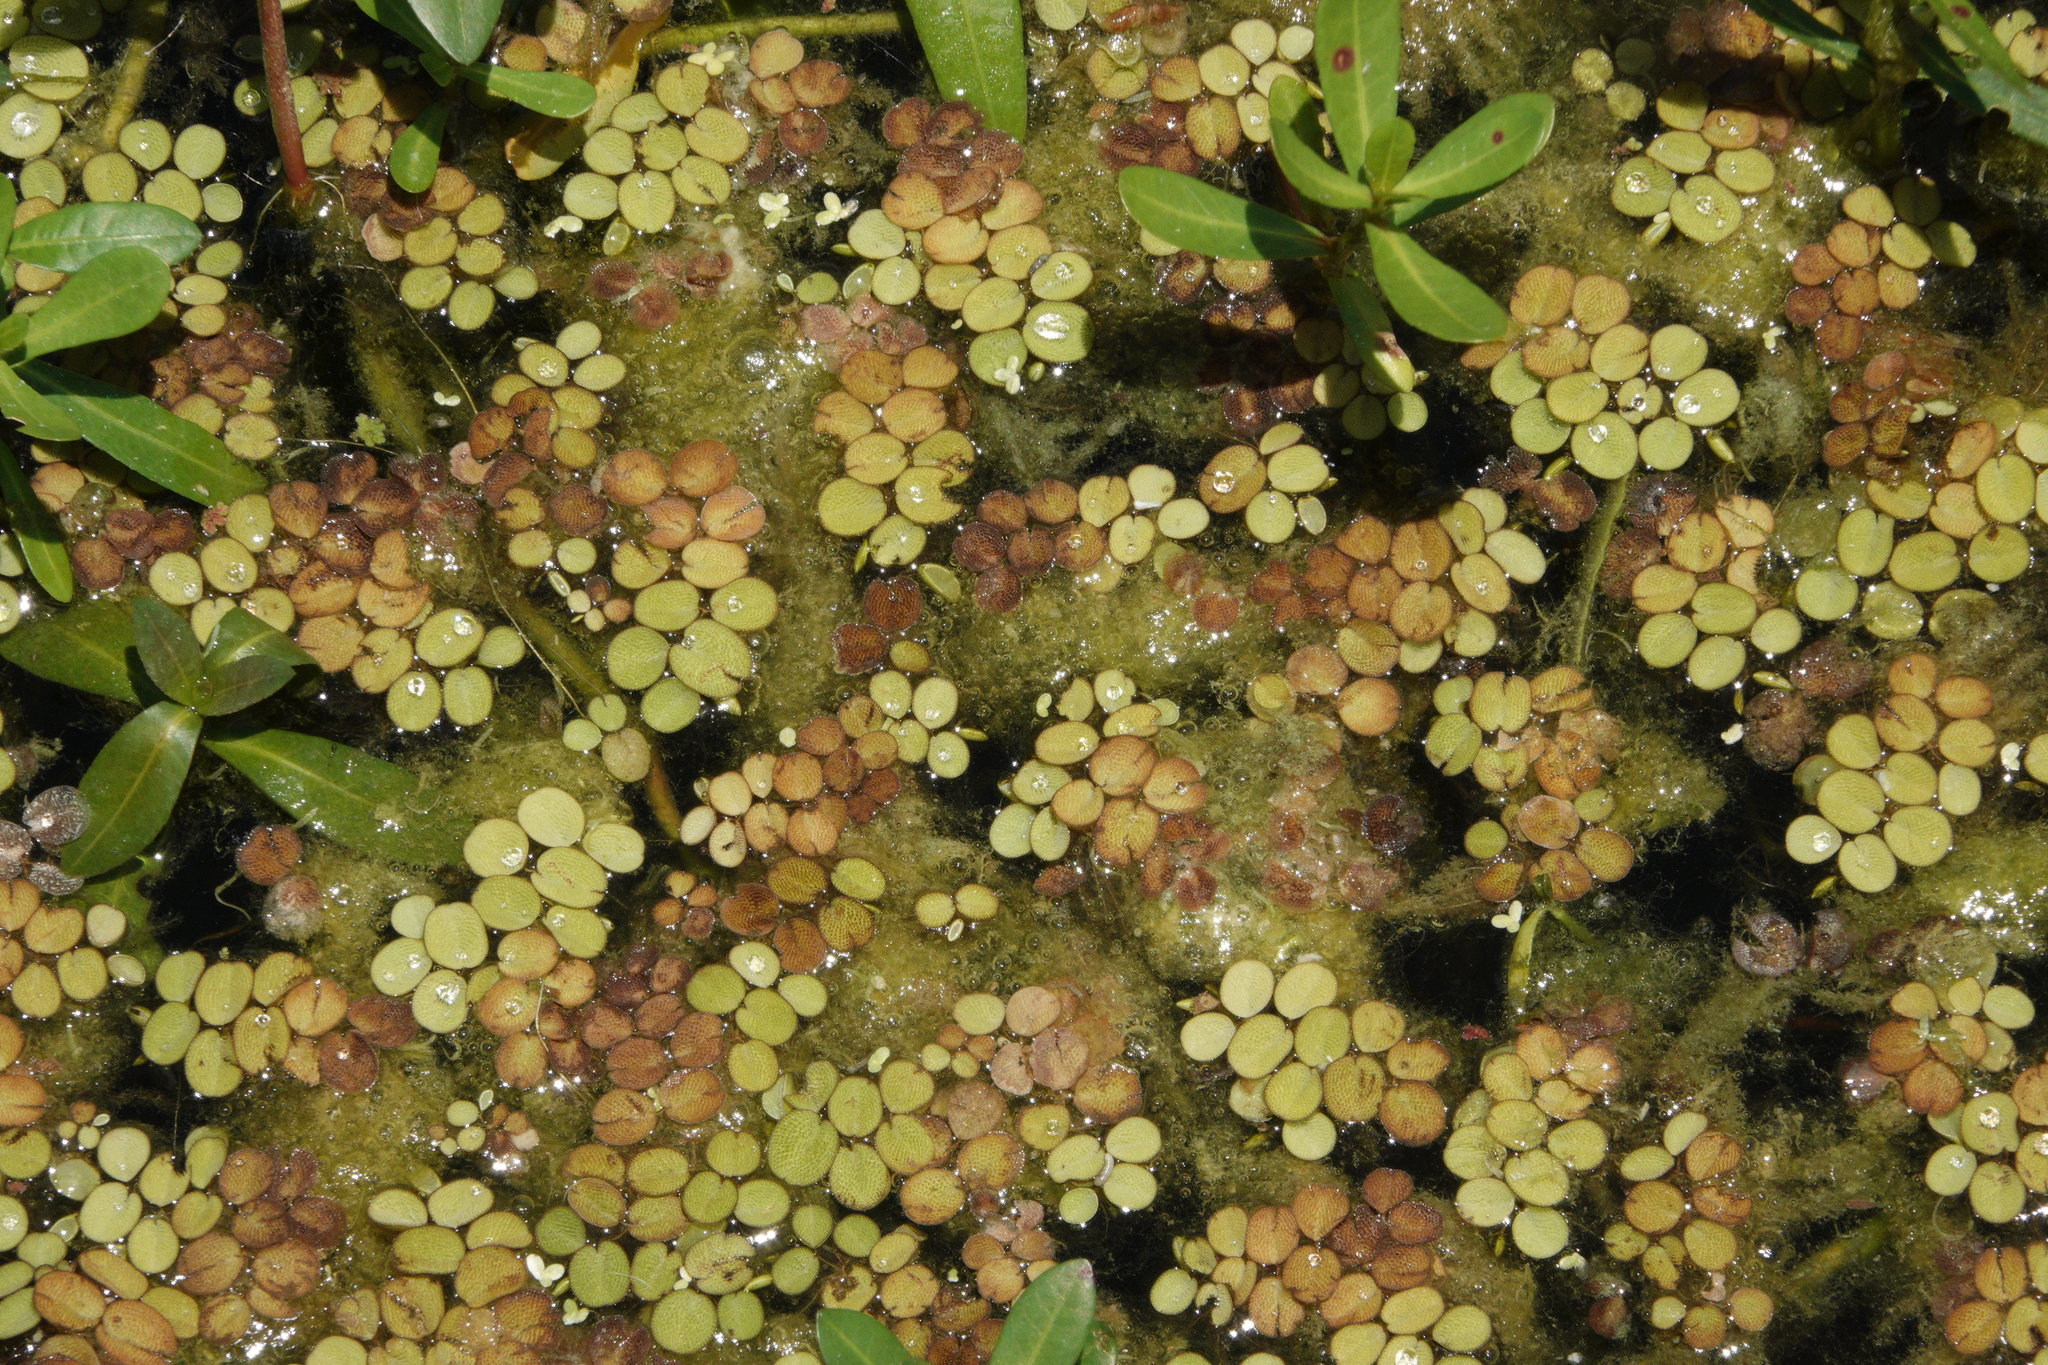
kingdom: Plantae
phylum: Tracheophyta
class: Polypodiopsida
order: Salviniales
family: Salviniaceae
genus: Salvinia
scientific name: Salvinia minima
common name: Water spangles
